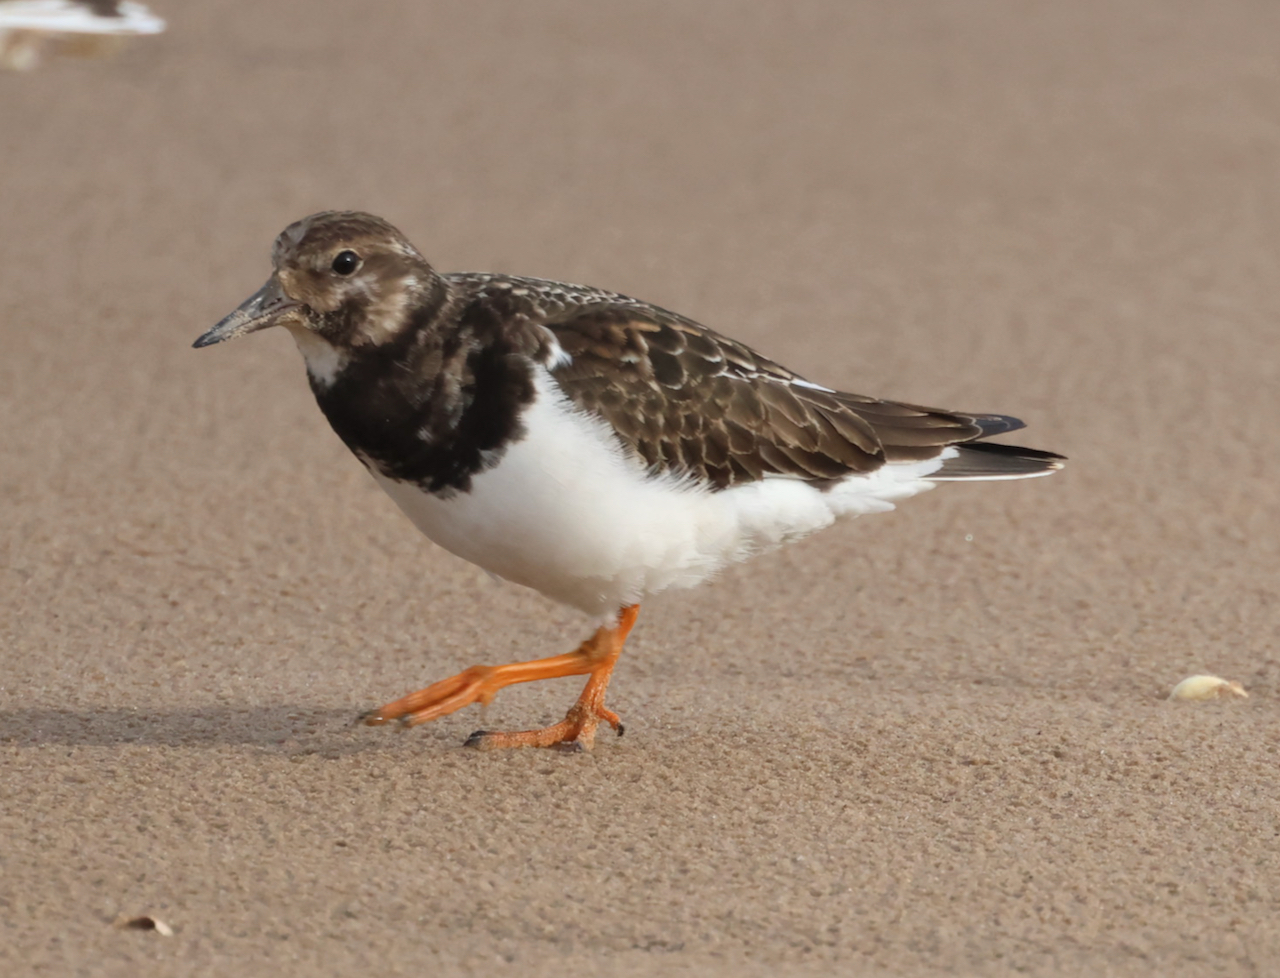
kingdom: Animalia
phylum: Chordata
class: Aves
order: Charadriiformes
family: Scolopacidae
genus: Arenaria
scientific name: Arenaria interpres
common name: Ruddy turnstone
